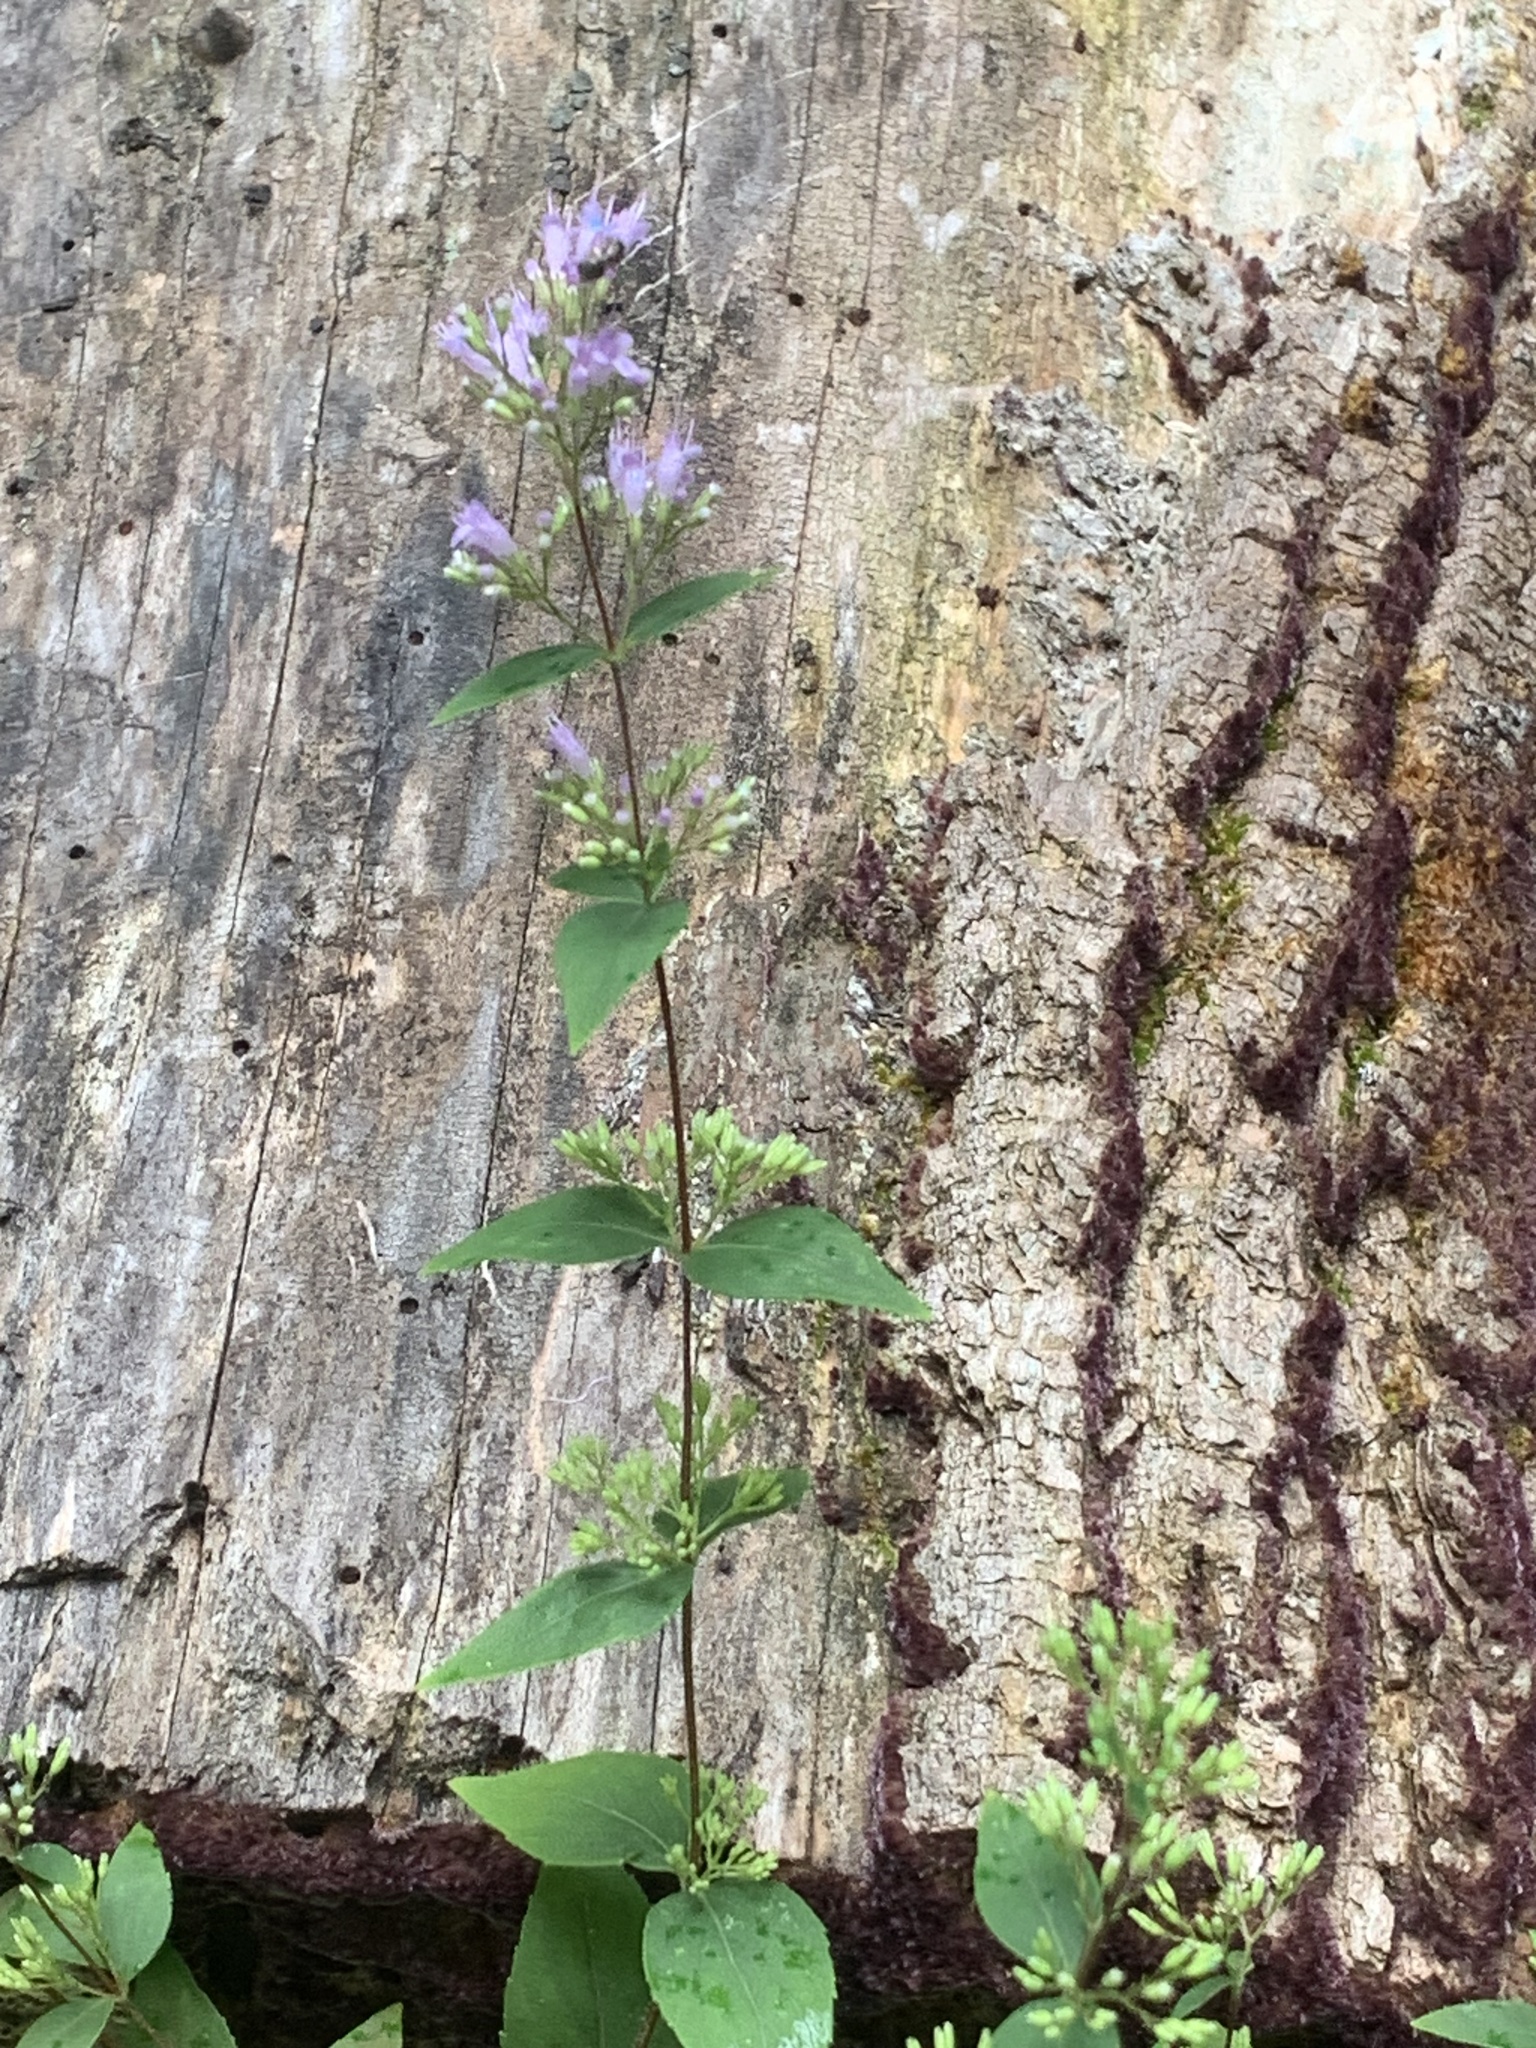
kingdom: Plantae
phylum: Tracheophyta
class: Magnoliopsida
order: Lamiales
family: Lamiaceae
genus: Cunila
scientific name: Cunila origanoides
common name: American dittany
